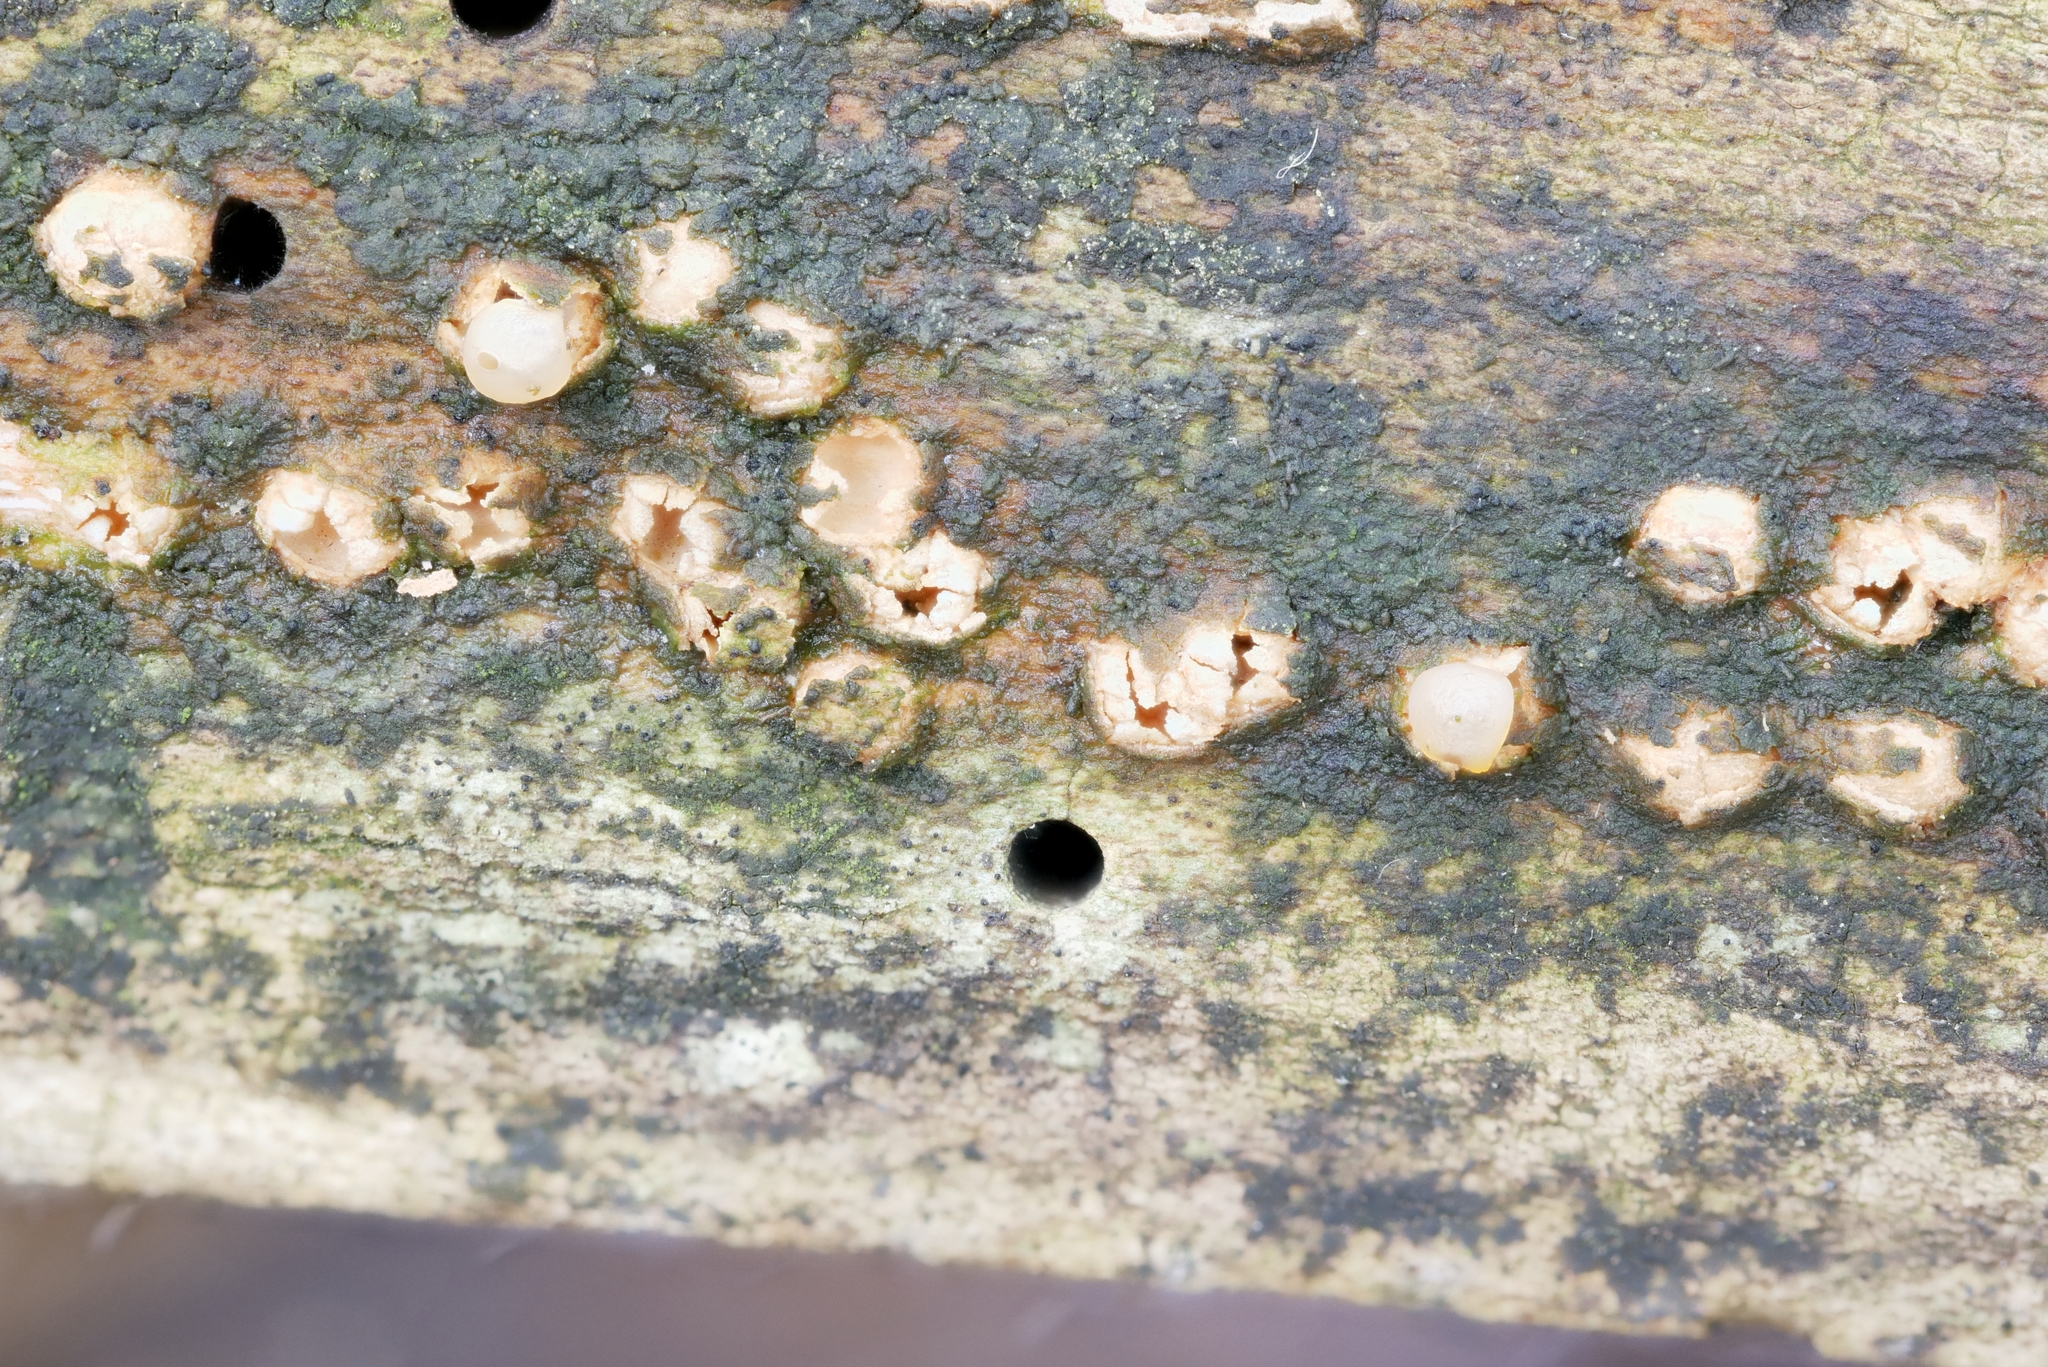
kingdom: Fungi
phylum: Basidiomycota
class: Agaricomycetes
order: Geastrales
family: Geastraceae
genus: Nidulariopsis
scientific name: Nidulariopsis iowensis
